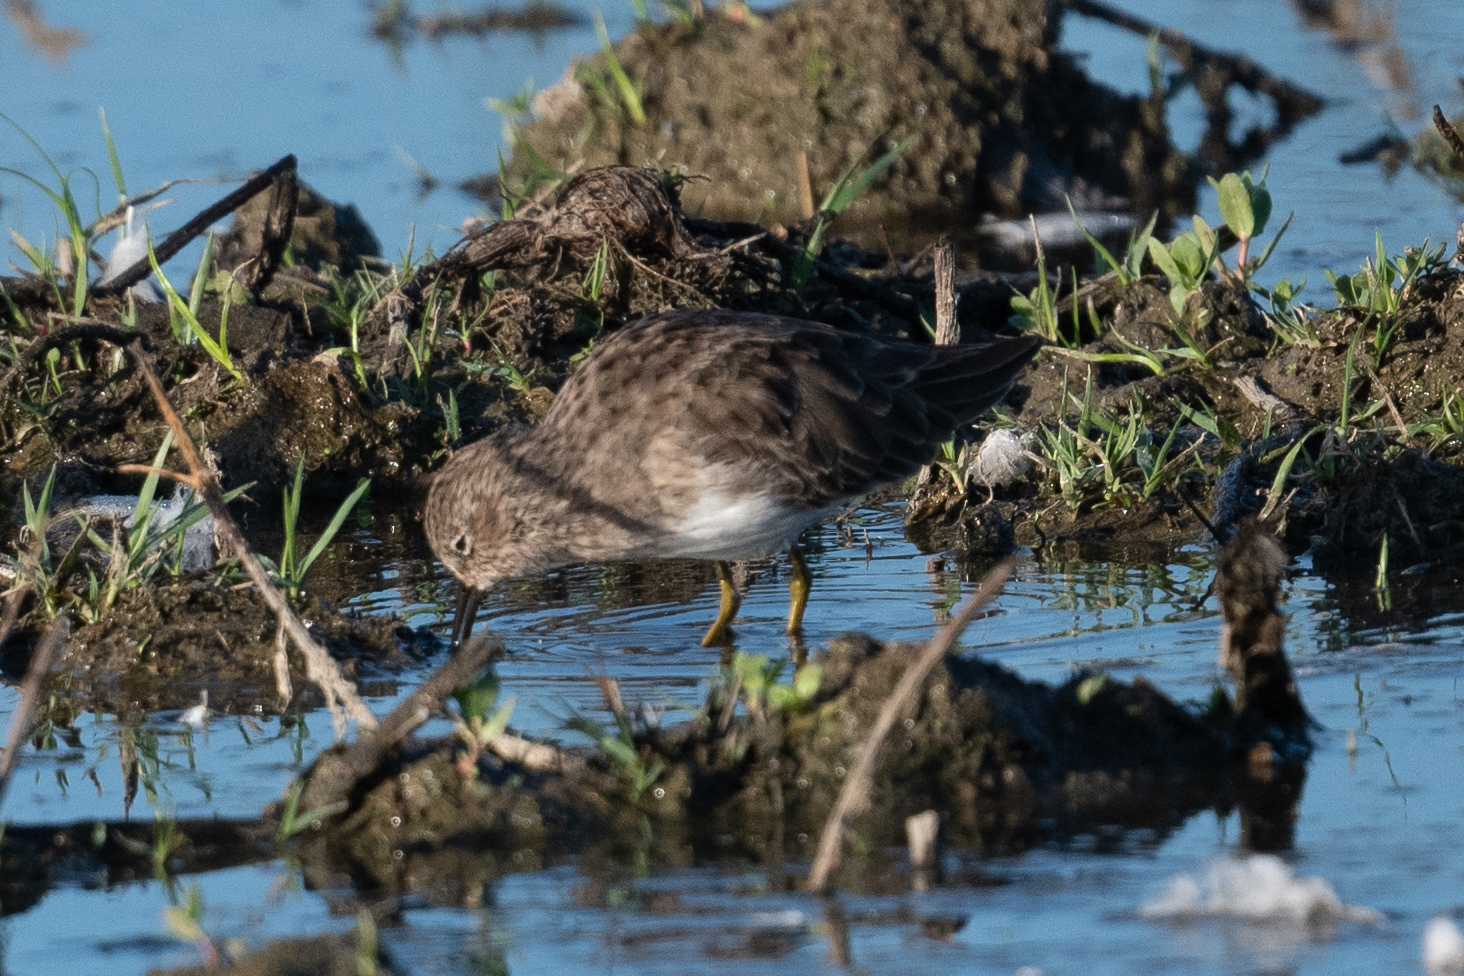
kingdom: Animalia
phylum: Chordata
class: Aves
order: Charadriiformes
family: Scolopacidae
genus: Calidris
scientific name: Calidris minutilla
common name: Least sandpiper
